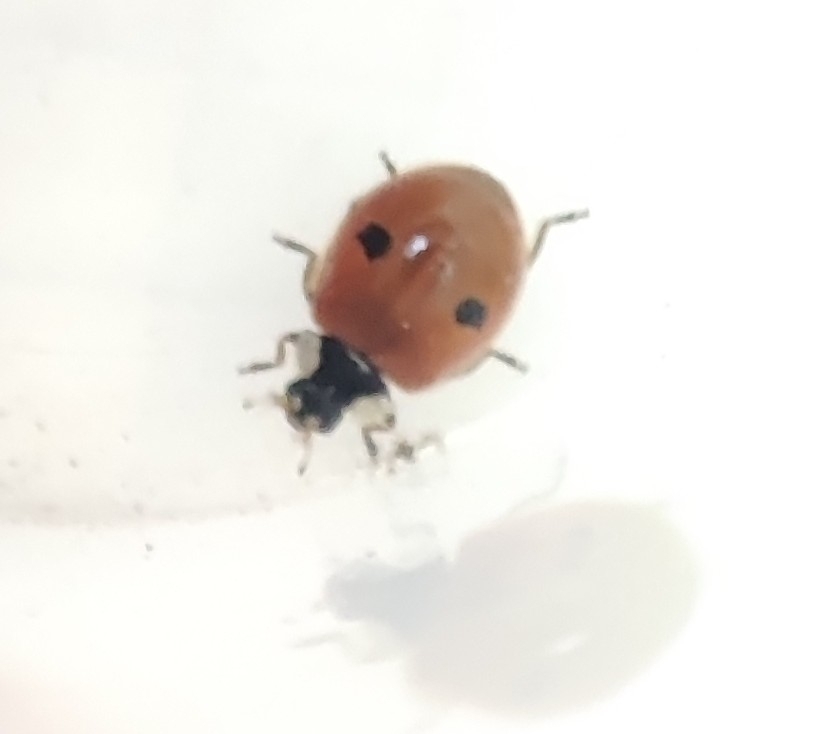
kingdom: Animalia
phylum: Arthropoda
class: Insecta
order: Coleoptera
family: Coccinellidae
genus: Adalia
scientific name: Adalia bipunctata
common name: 2-spot ladybird
